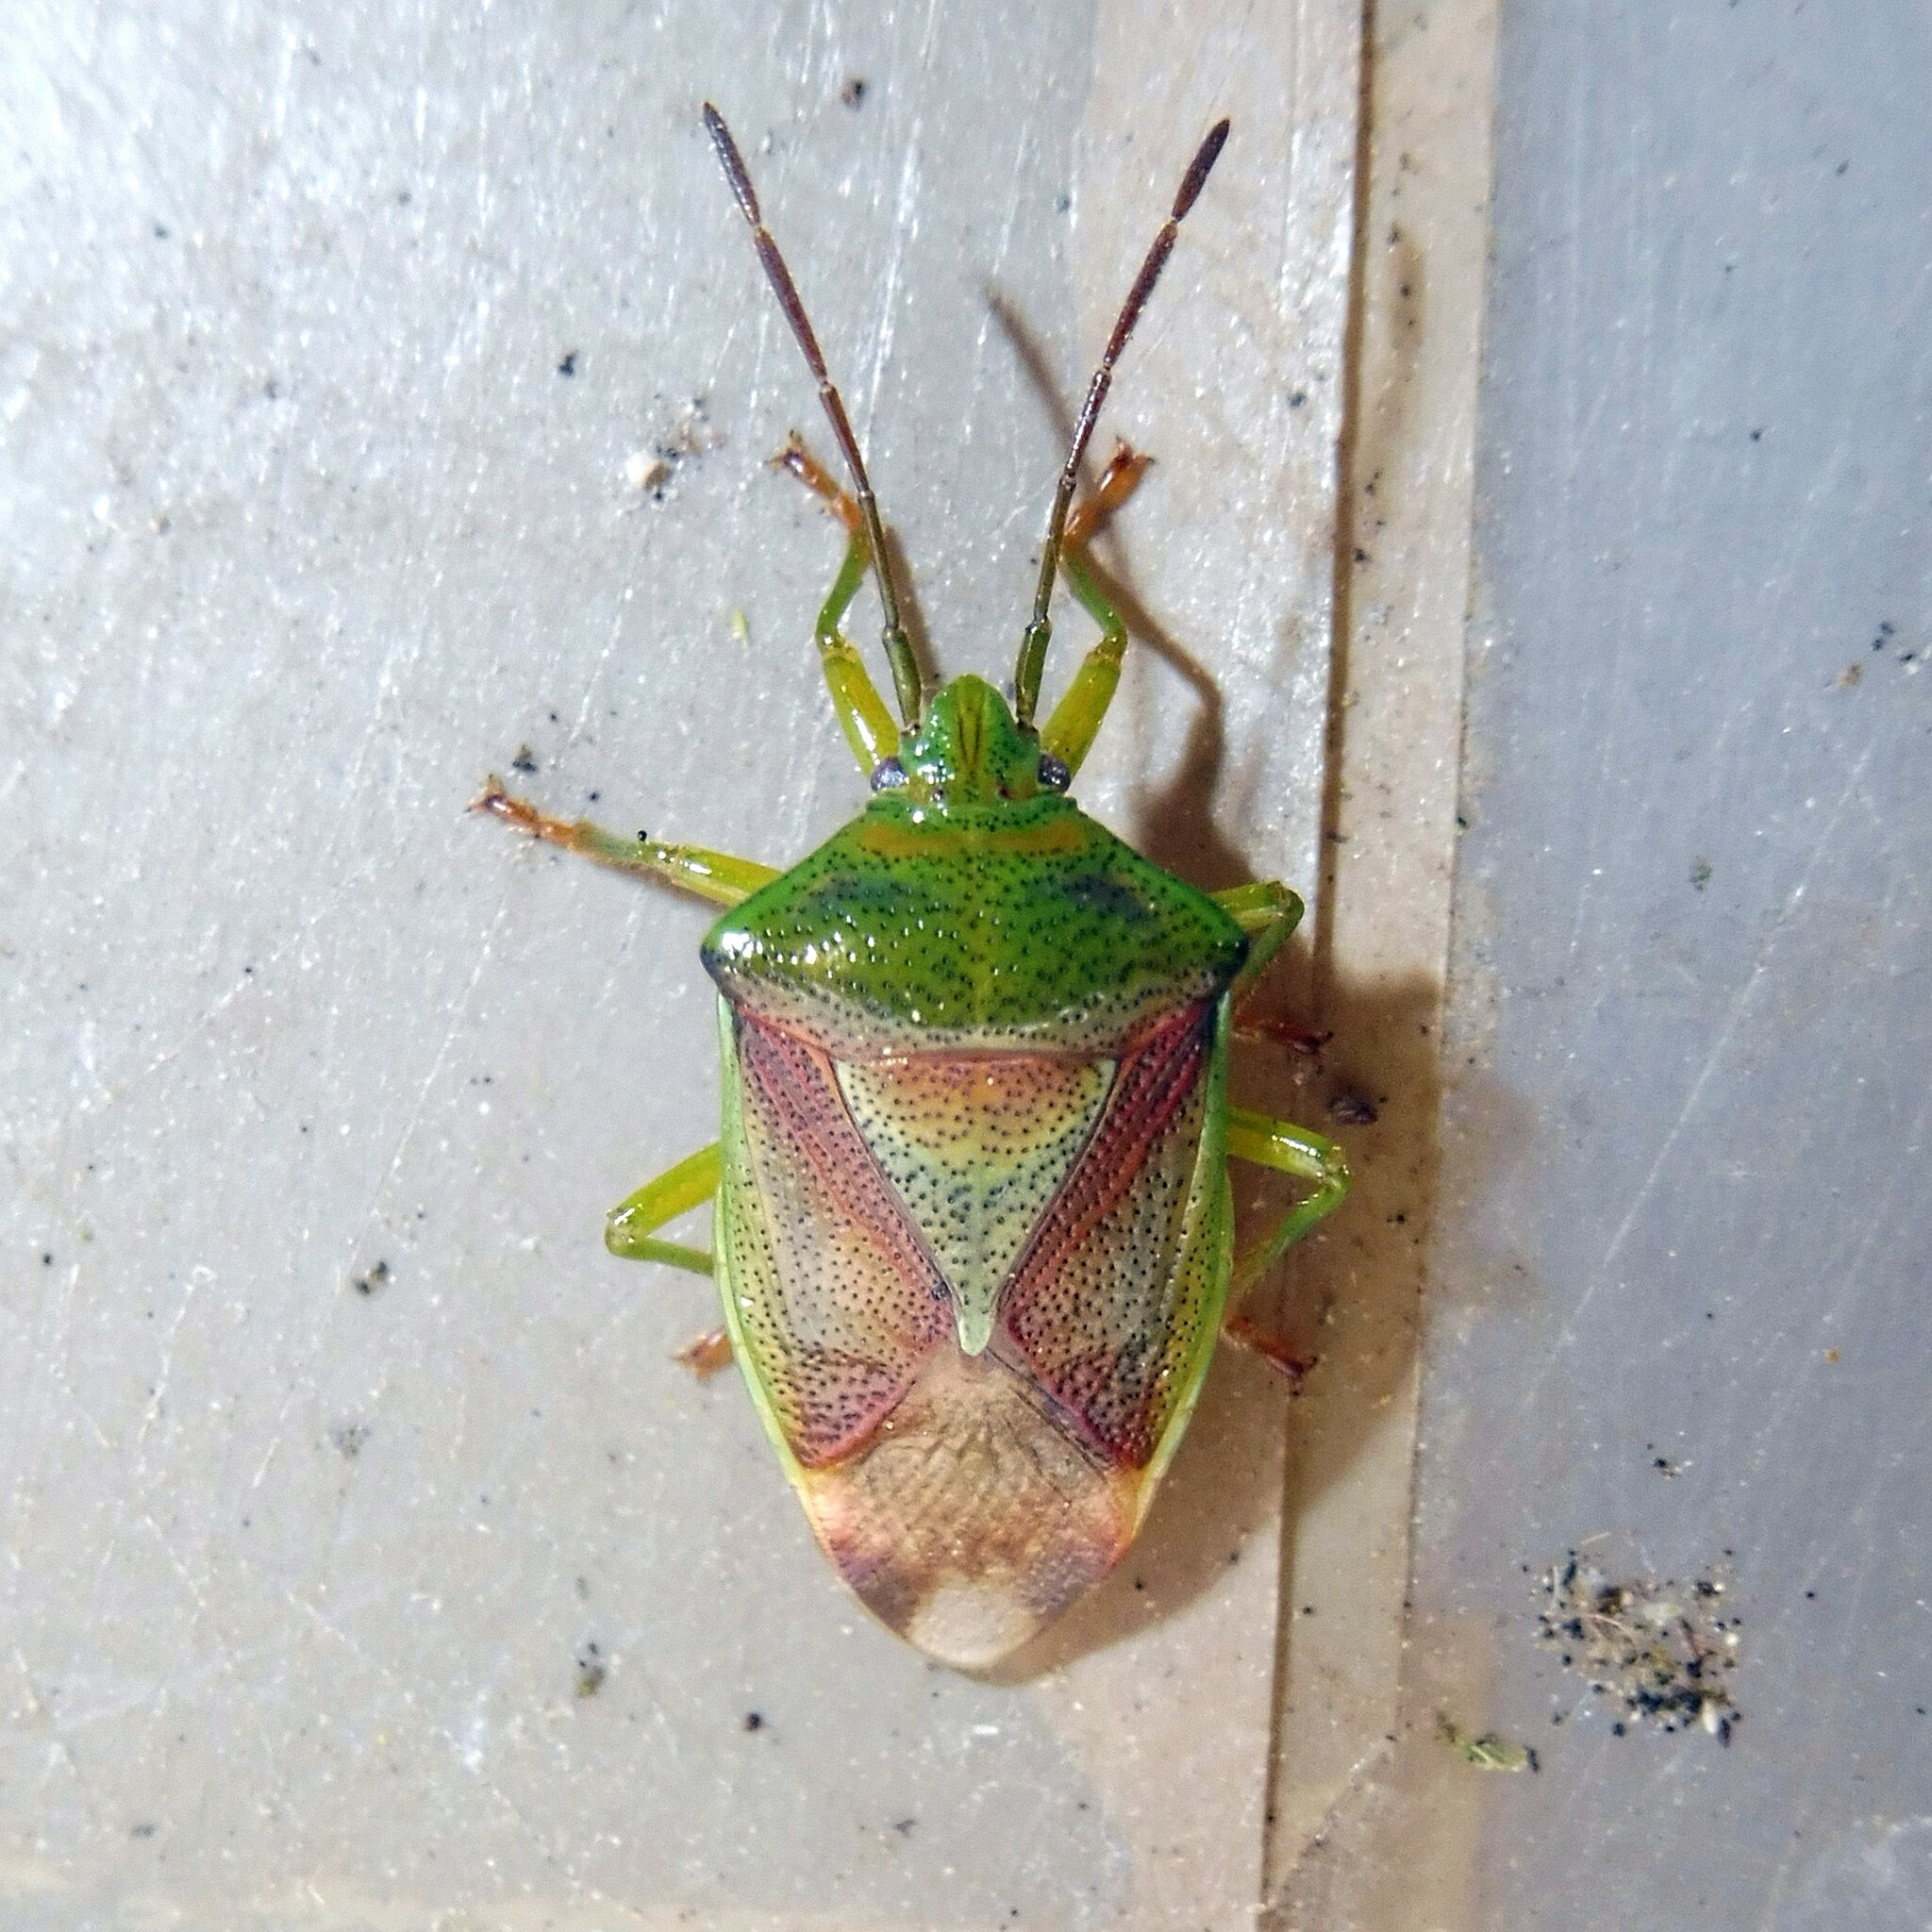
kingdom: Animalia
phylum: Arthropoda
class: Insecta
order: Hemiptera
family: Acanthosomatidae
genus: Elasmostethus
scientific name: Elasmostethus interstinctus
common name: Birch shieldbug
